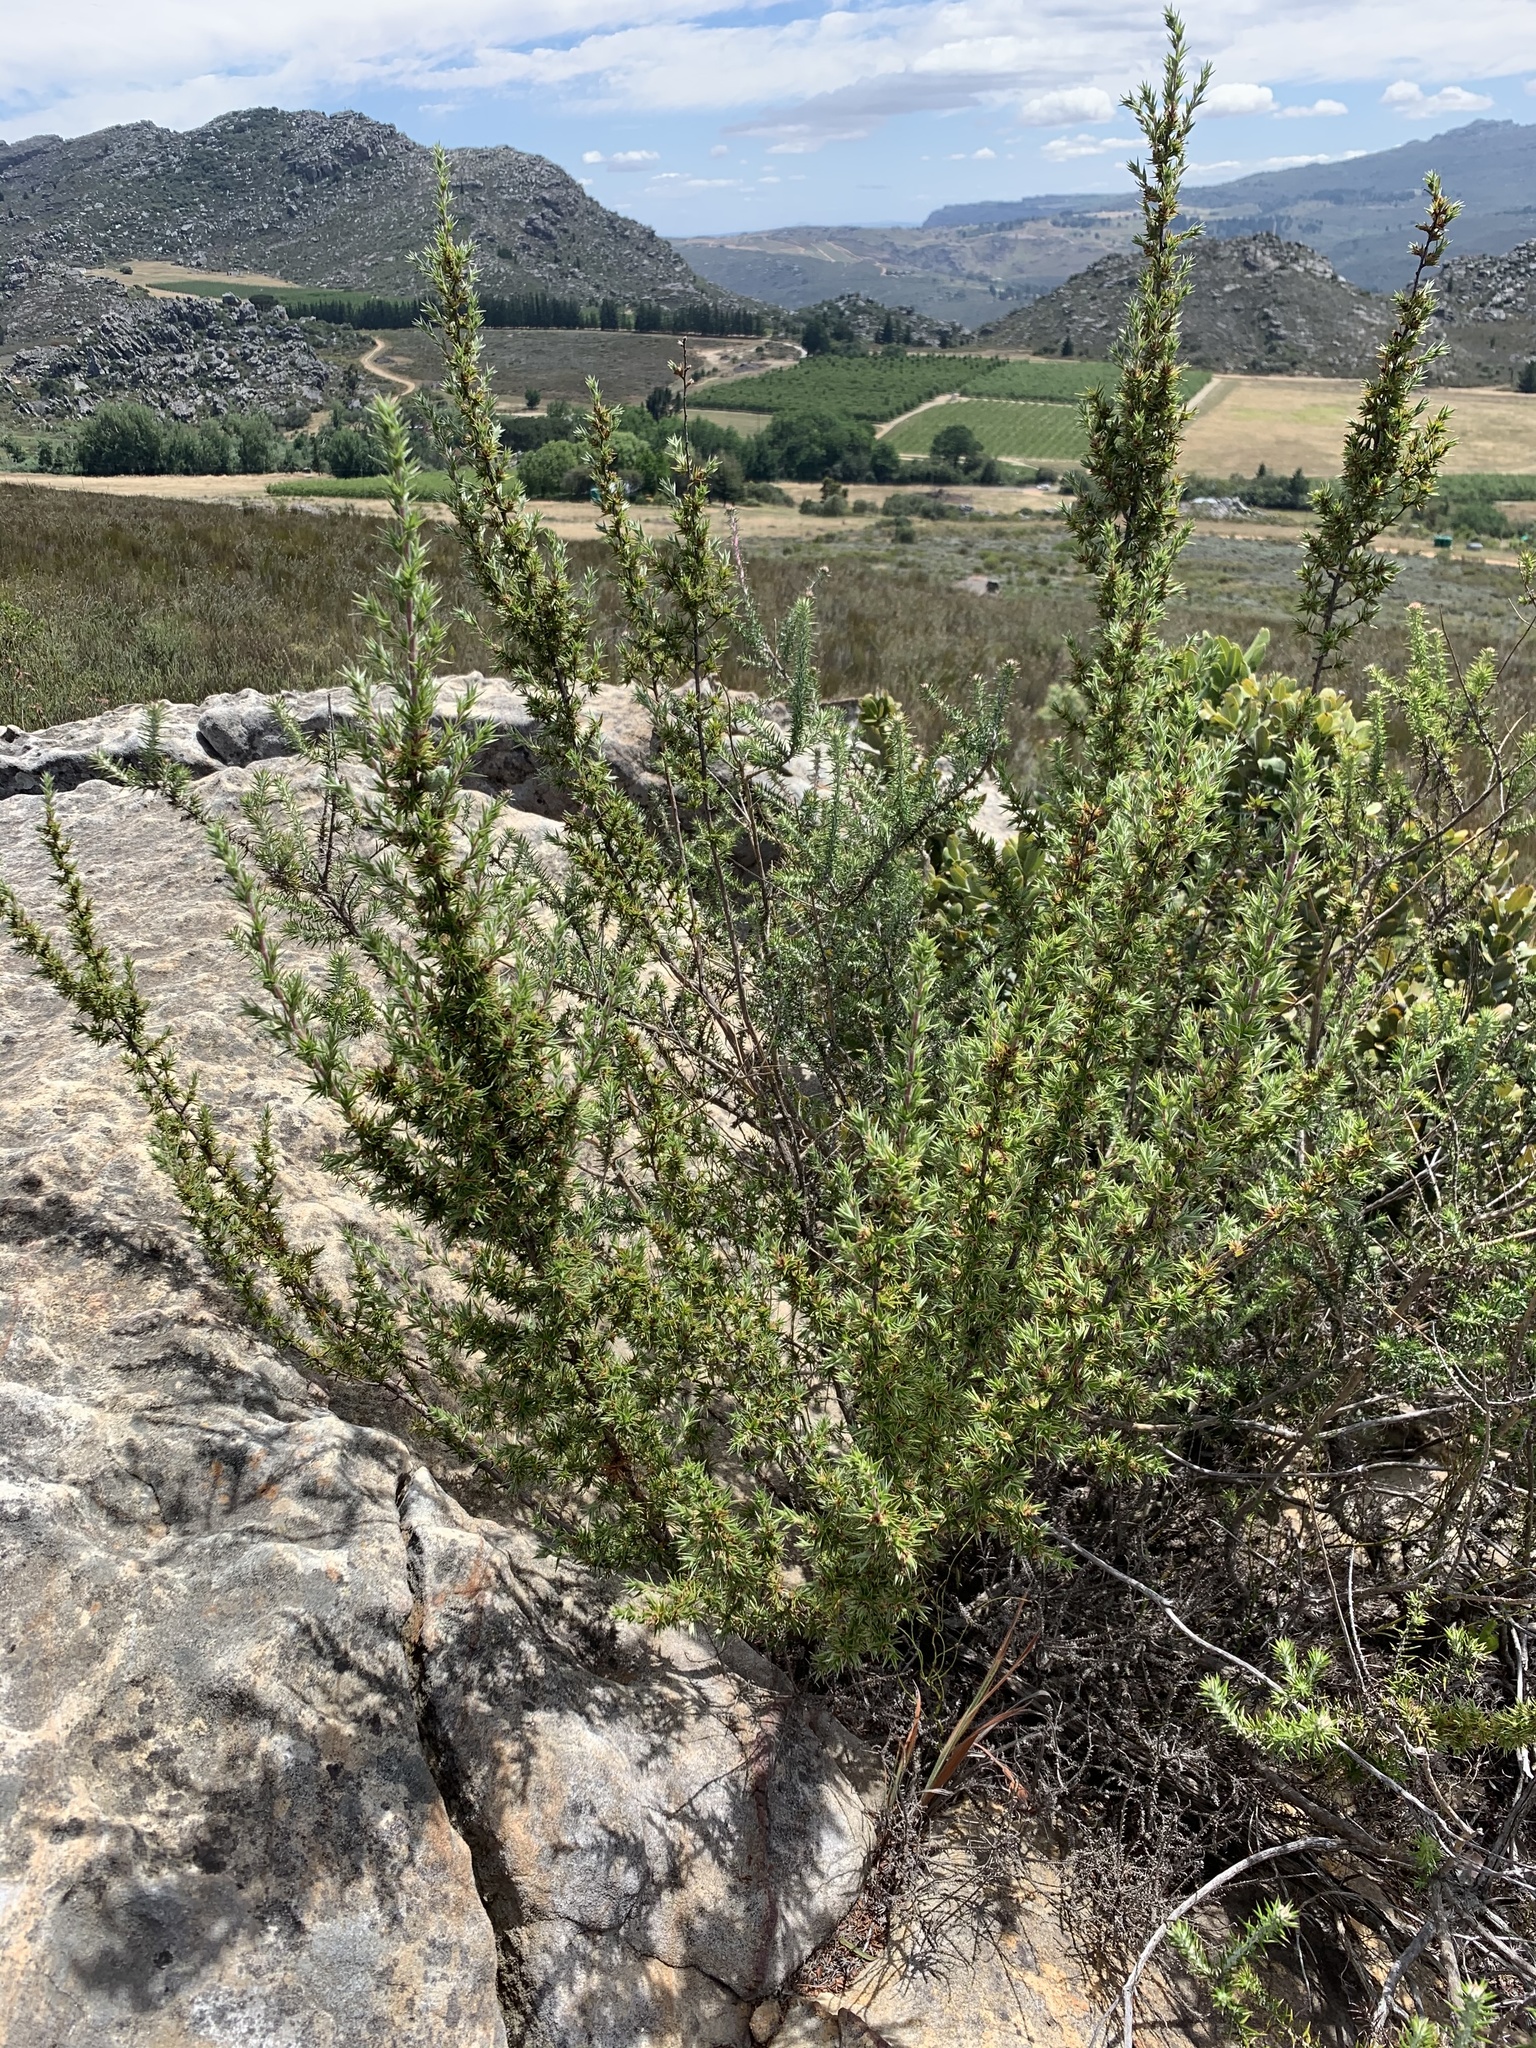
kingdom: Plantae
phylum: Tracheophyta
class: Magnoliopsida
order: Rosales
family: Rosaceae
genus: Cliffortia
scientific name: Cliffortia ruscifolia
